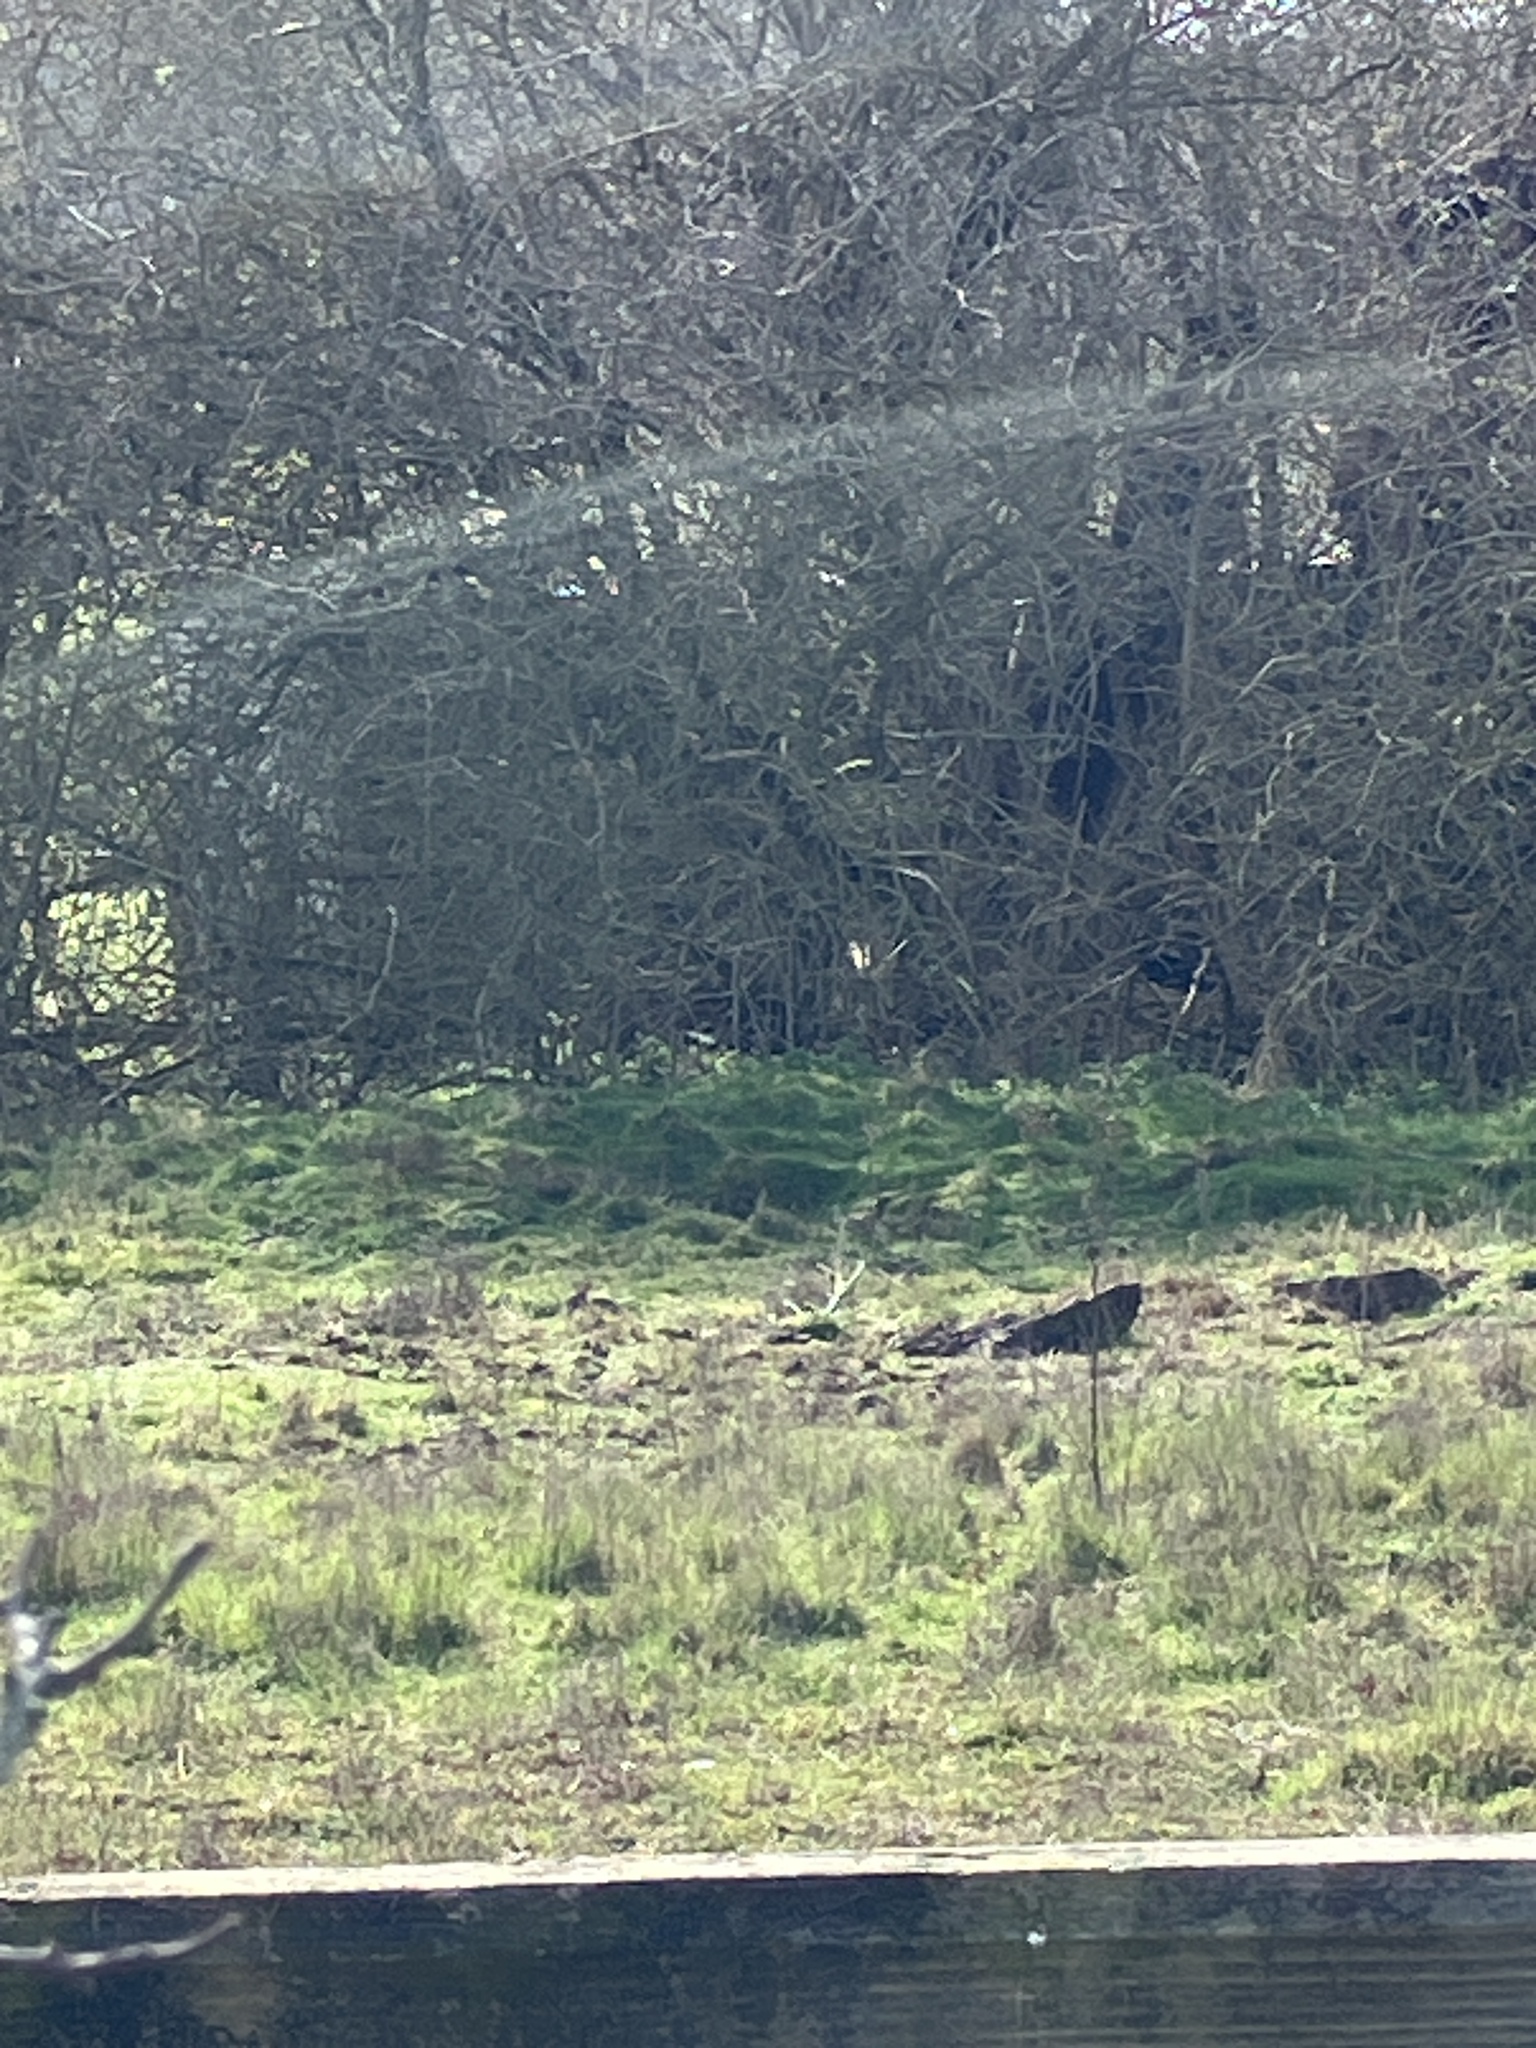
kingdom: Animalia
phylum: Chordata
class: Mammalia
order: Lagomorpha
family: Leporidae
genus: Oryctolagus
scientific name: Oryctolagus cuniculus
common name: European rabbit
